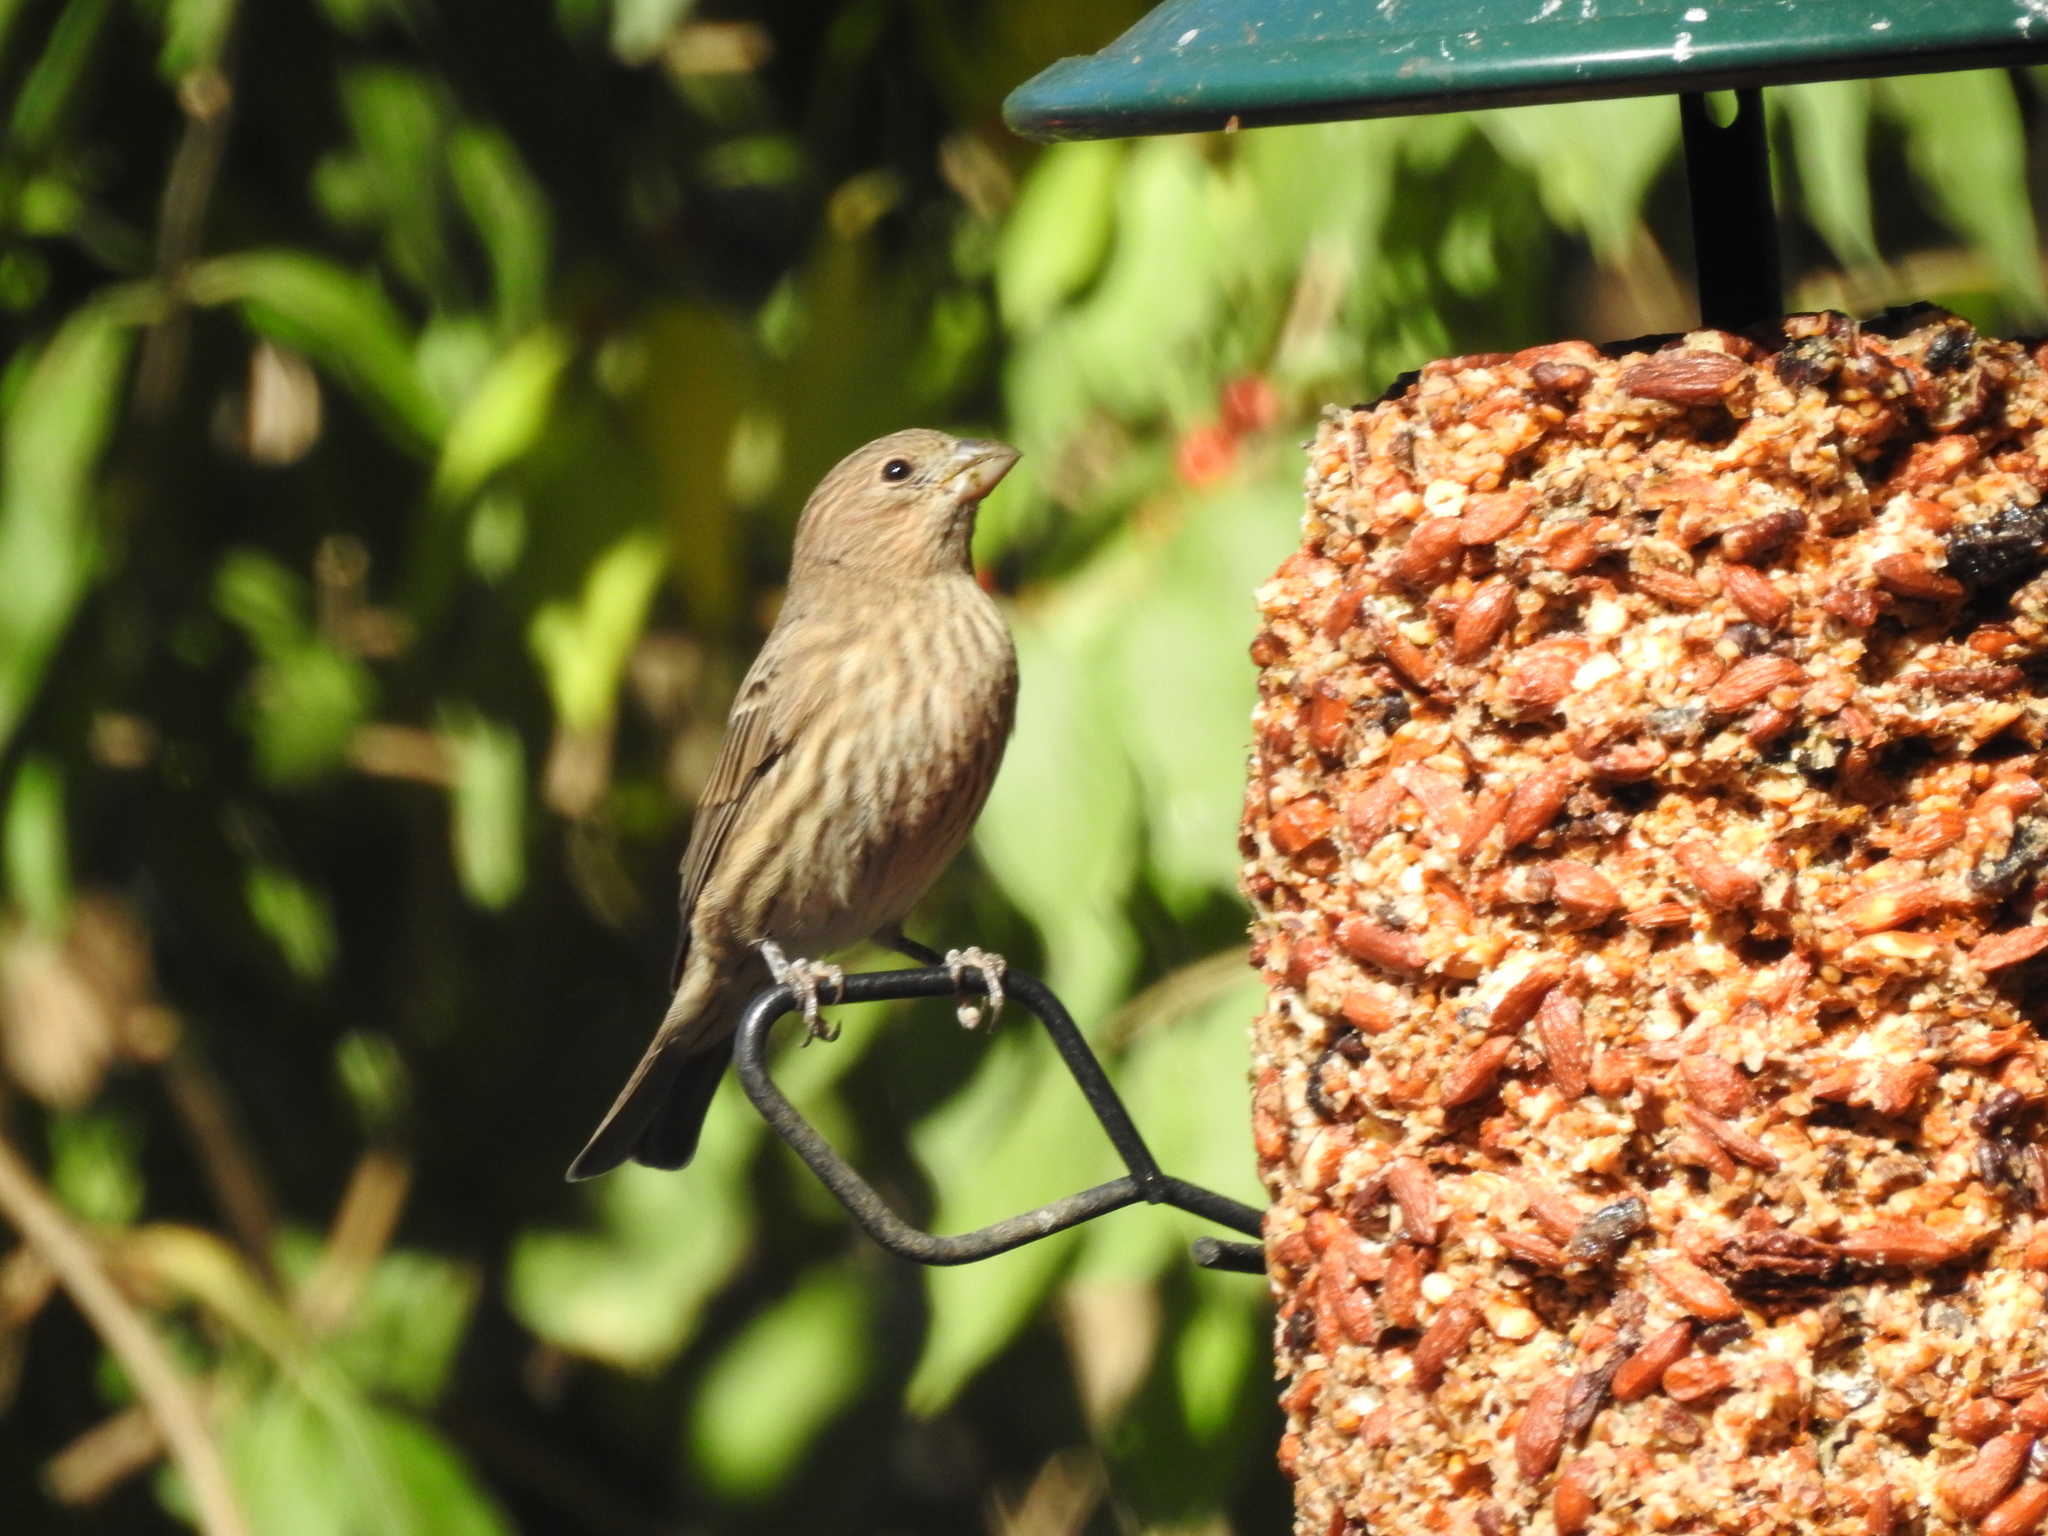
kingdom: Animalia
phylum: Chordata
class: Aves
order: Passeriformes
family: Fringillidae
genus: Haemorhous
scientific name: Haemorhous mexicanus
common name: House finch
